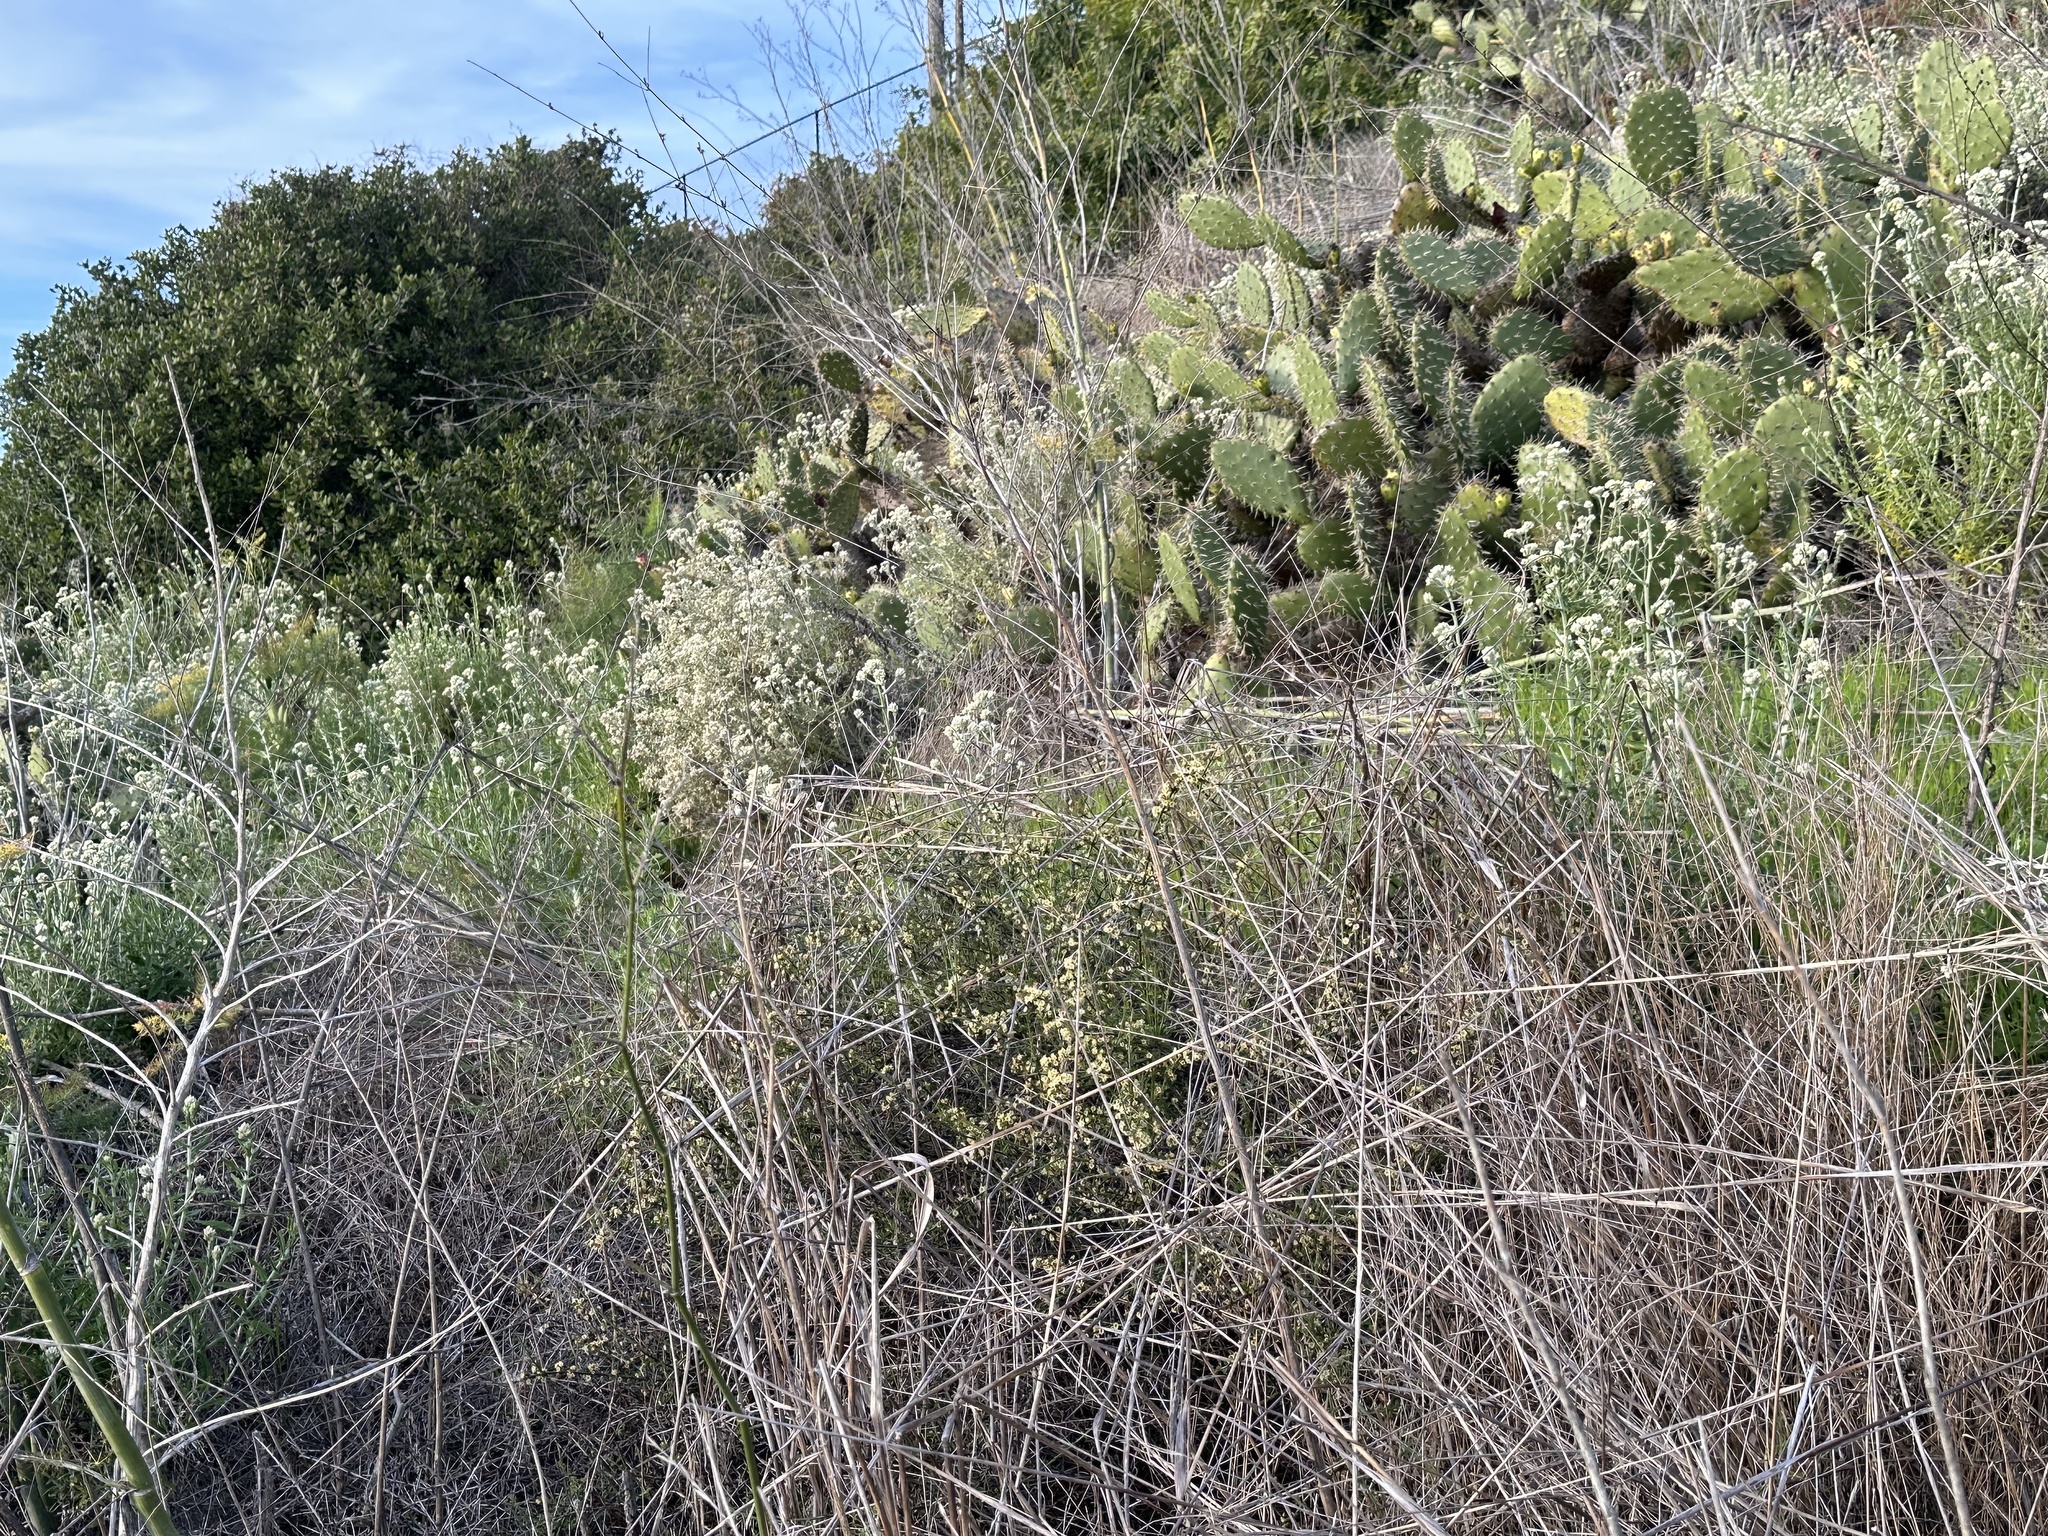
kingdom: Plantae
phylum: Tracheophyta
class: Magnoliopsida
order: Rosales
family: Rhamnaceae
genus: Adolphia
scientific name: Adolphia californica
